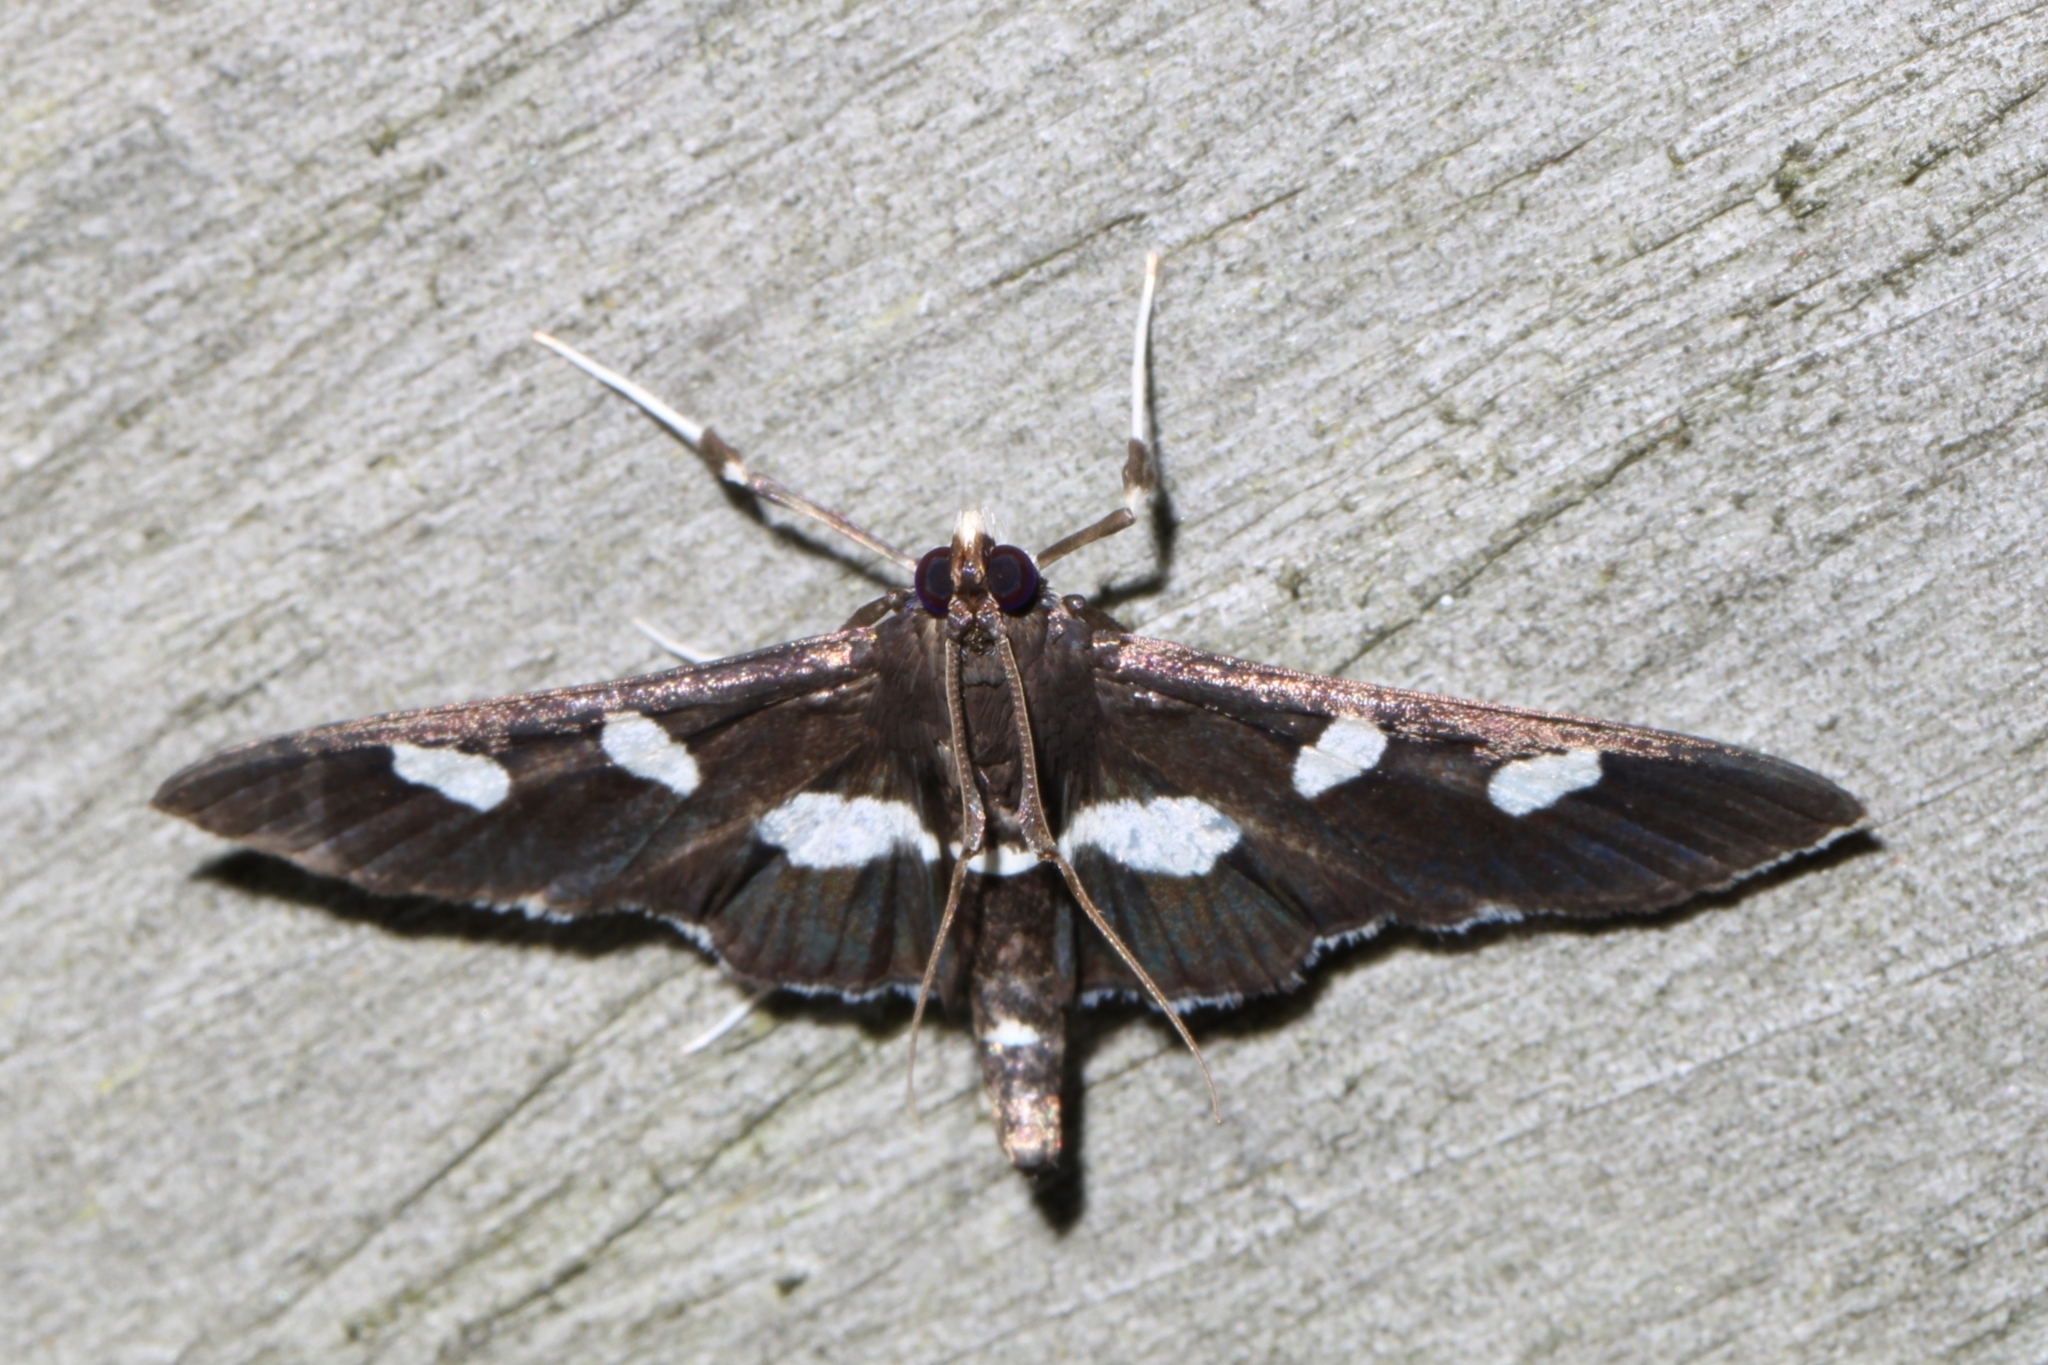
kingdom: Animalia
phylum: Arthropoda
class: Insecta
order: Lepidoptera
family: Crambidae
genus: Desmia
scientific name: Desmia
